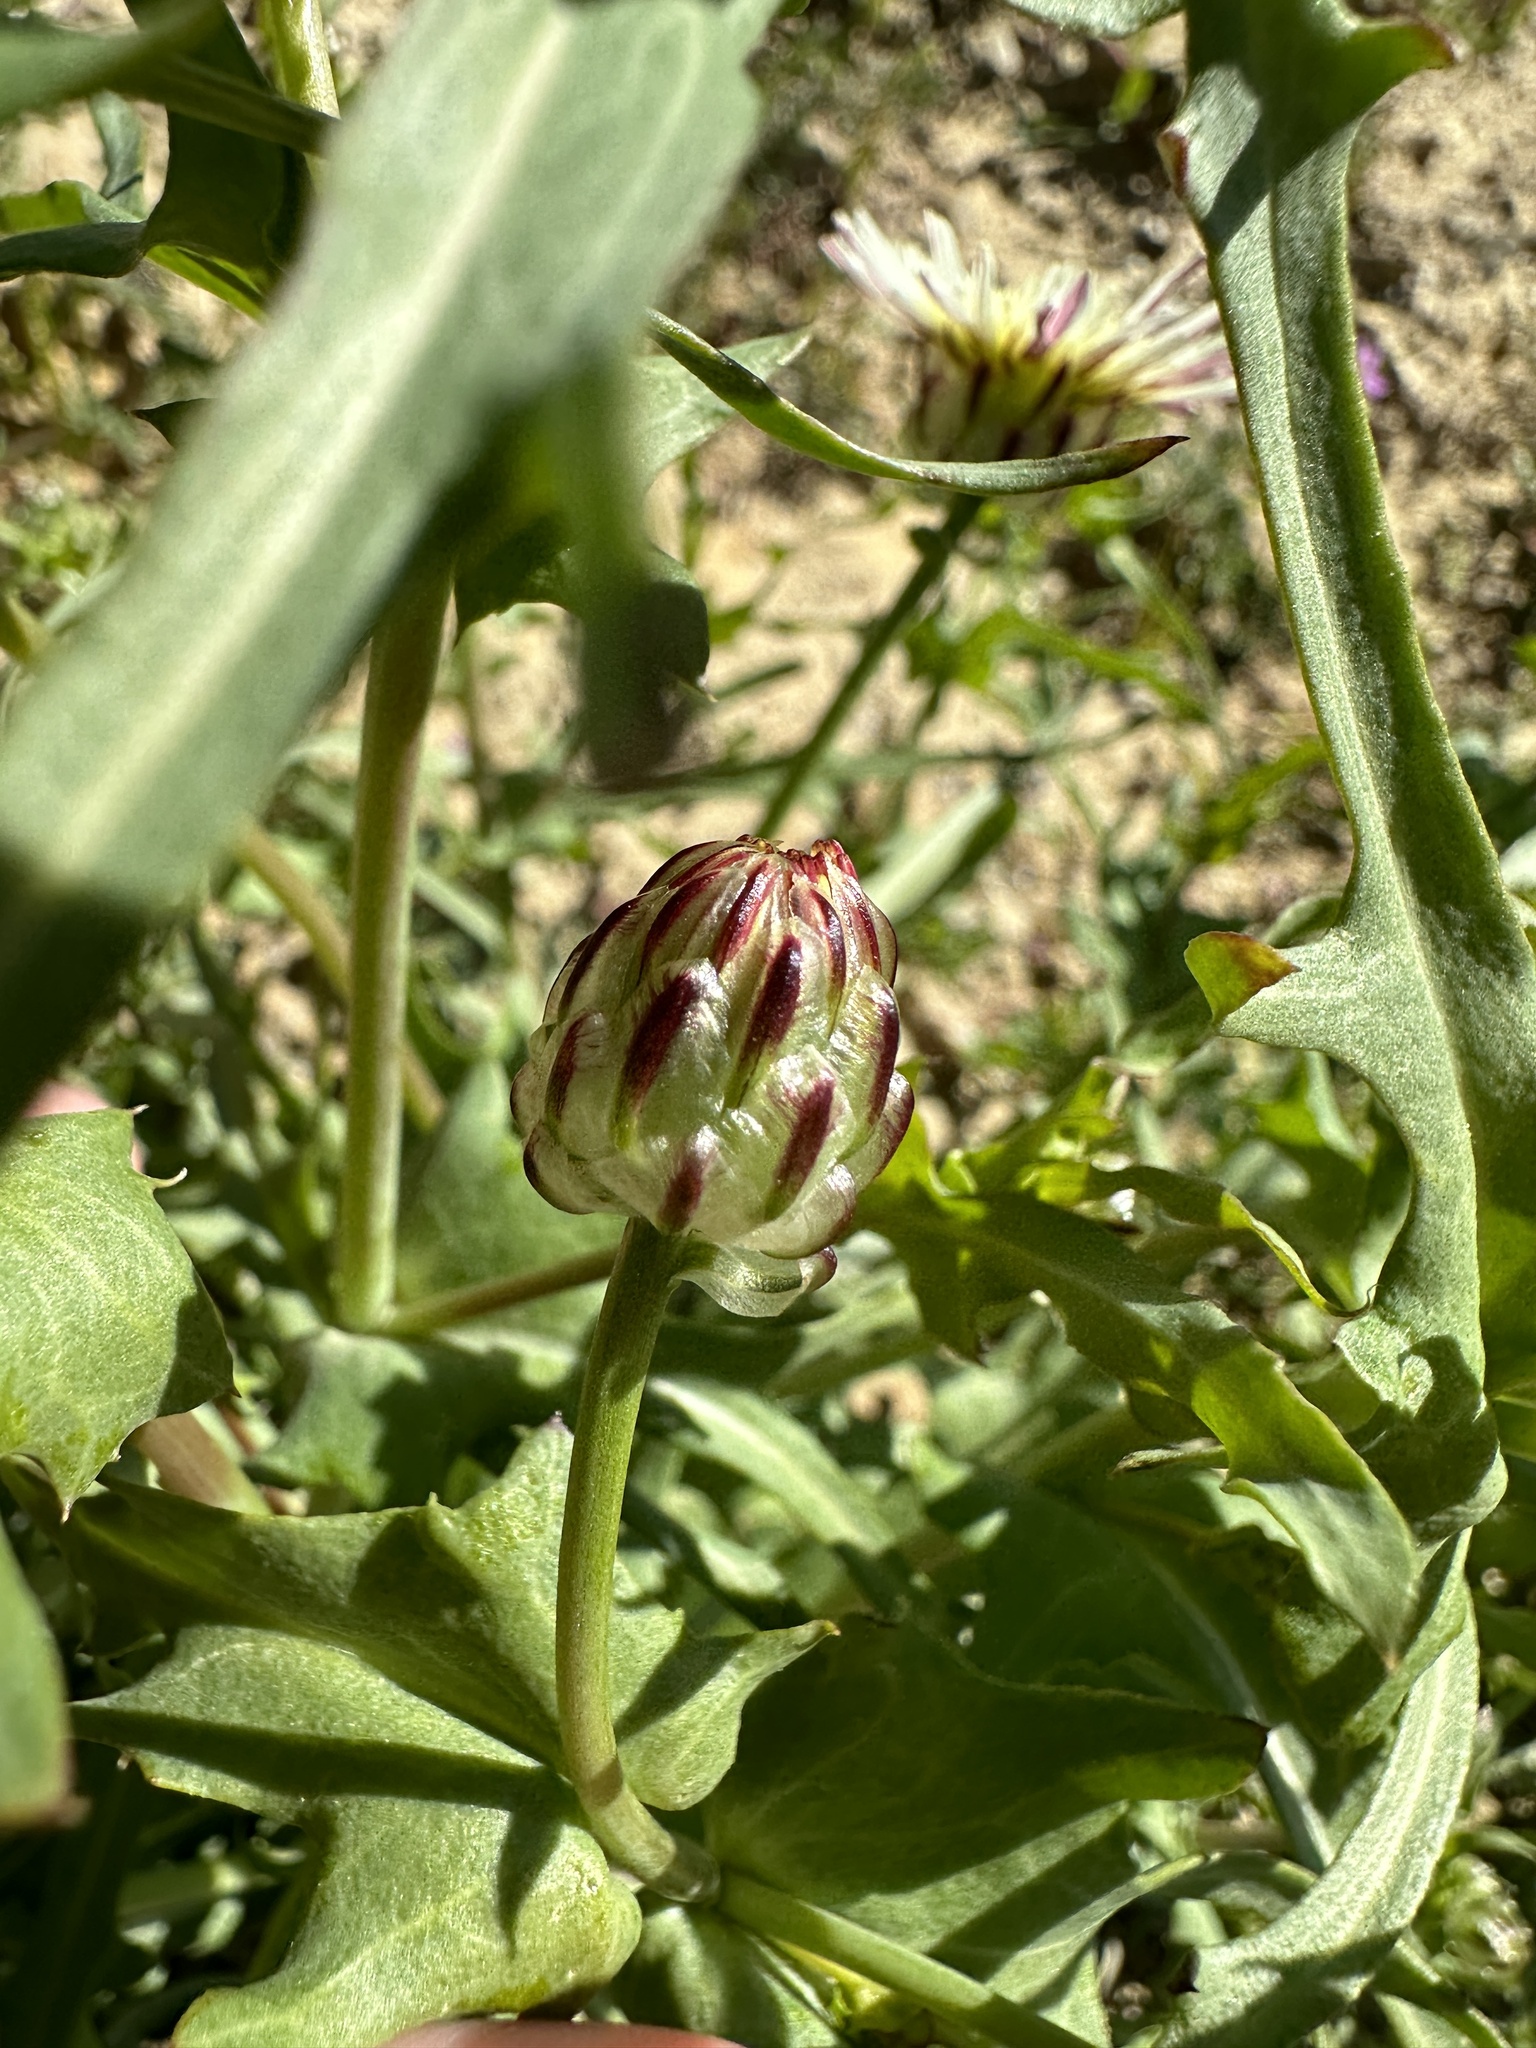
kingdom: Plantae
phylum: Tracheophyta
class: Magnoliopsida
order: Asterales
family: Asteraceae
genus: Malacothrix
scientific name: Malacothrix coulteri
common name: Snake's-head
